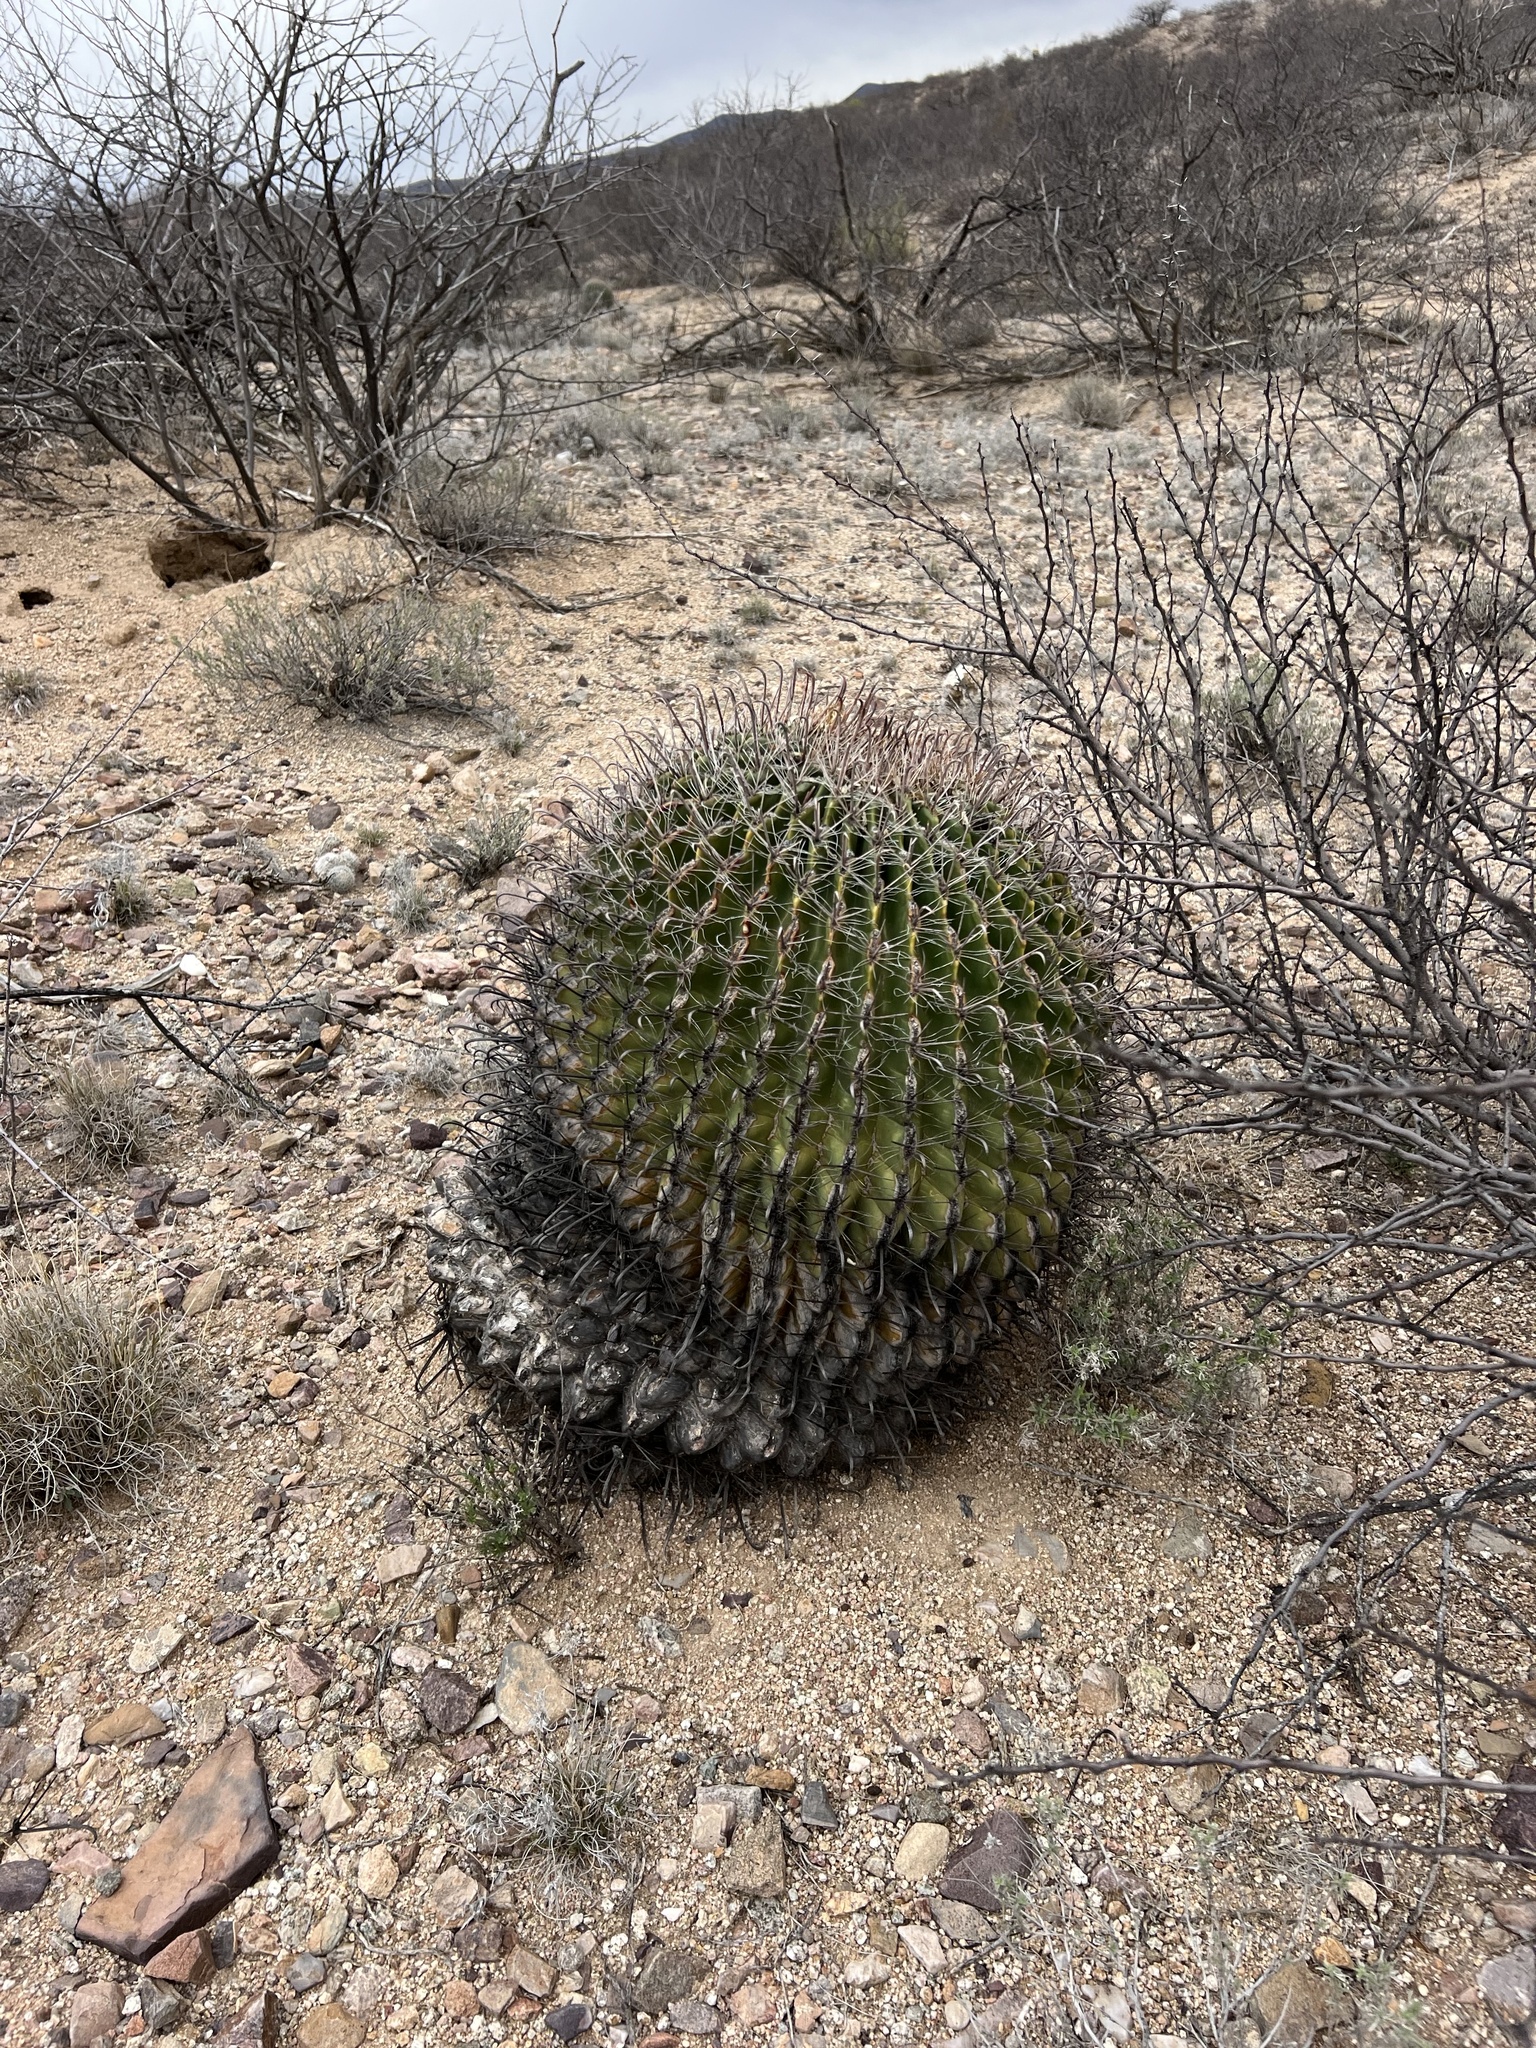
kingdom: Plantae
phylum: Tracheophyta
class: Magnoliopsida
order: Caryophyllales
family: Cactaceae
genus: Ferocactus
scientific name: Ferocactus wislizeni
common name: Candy barrel cactus
